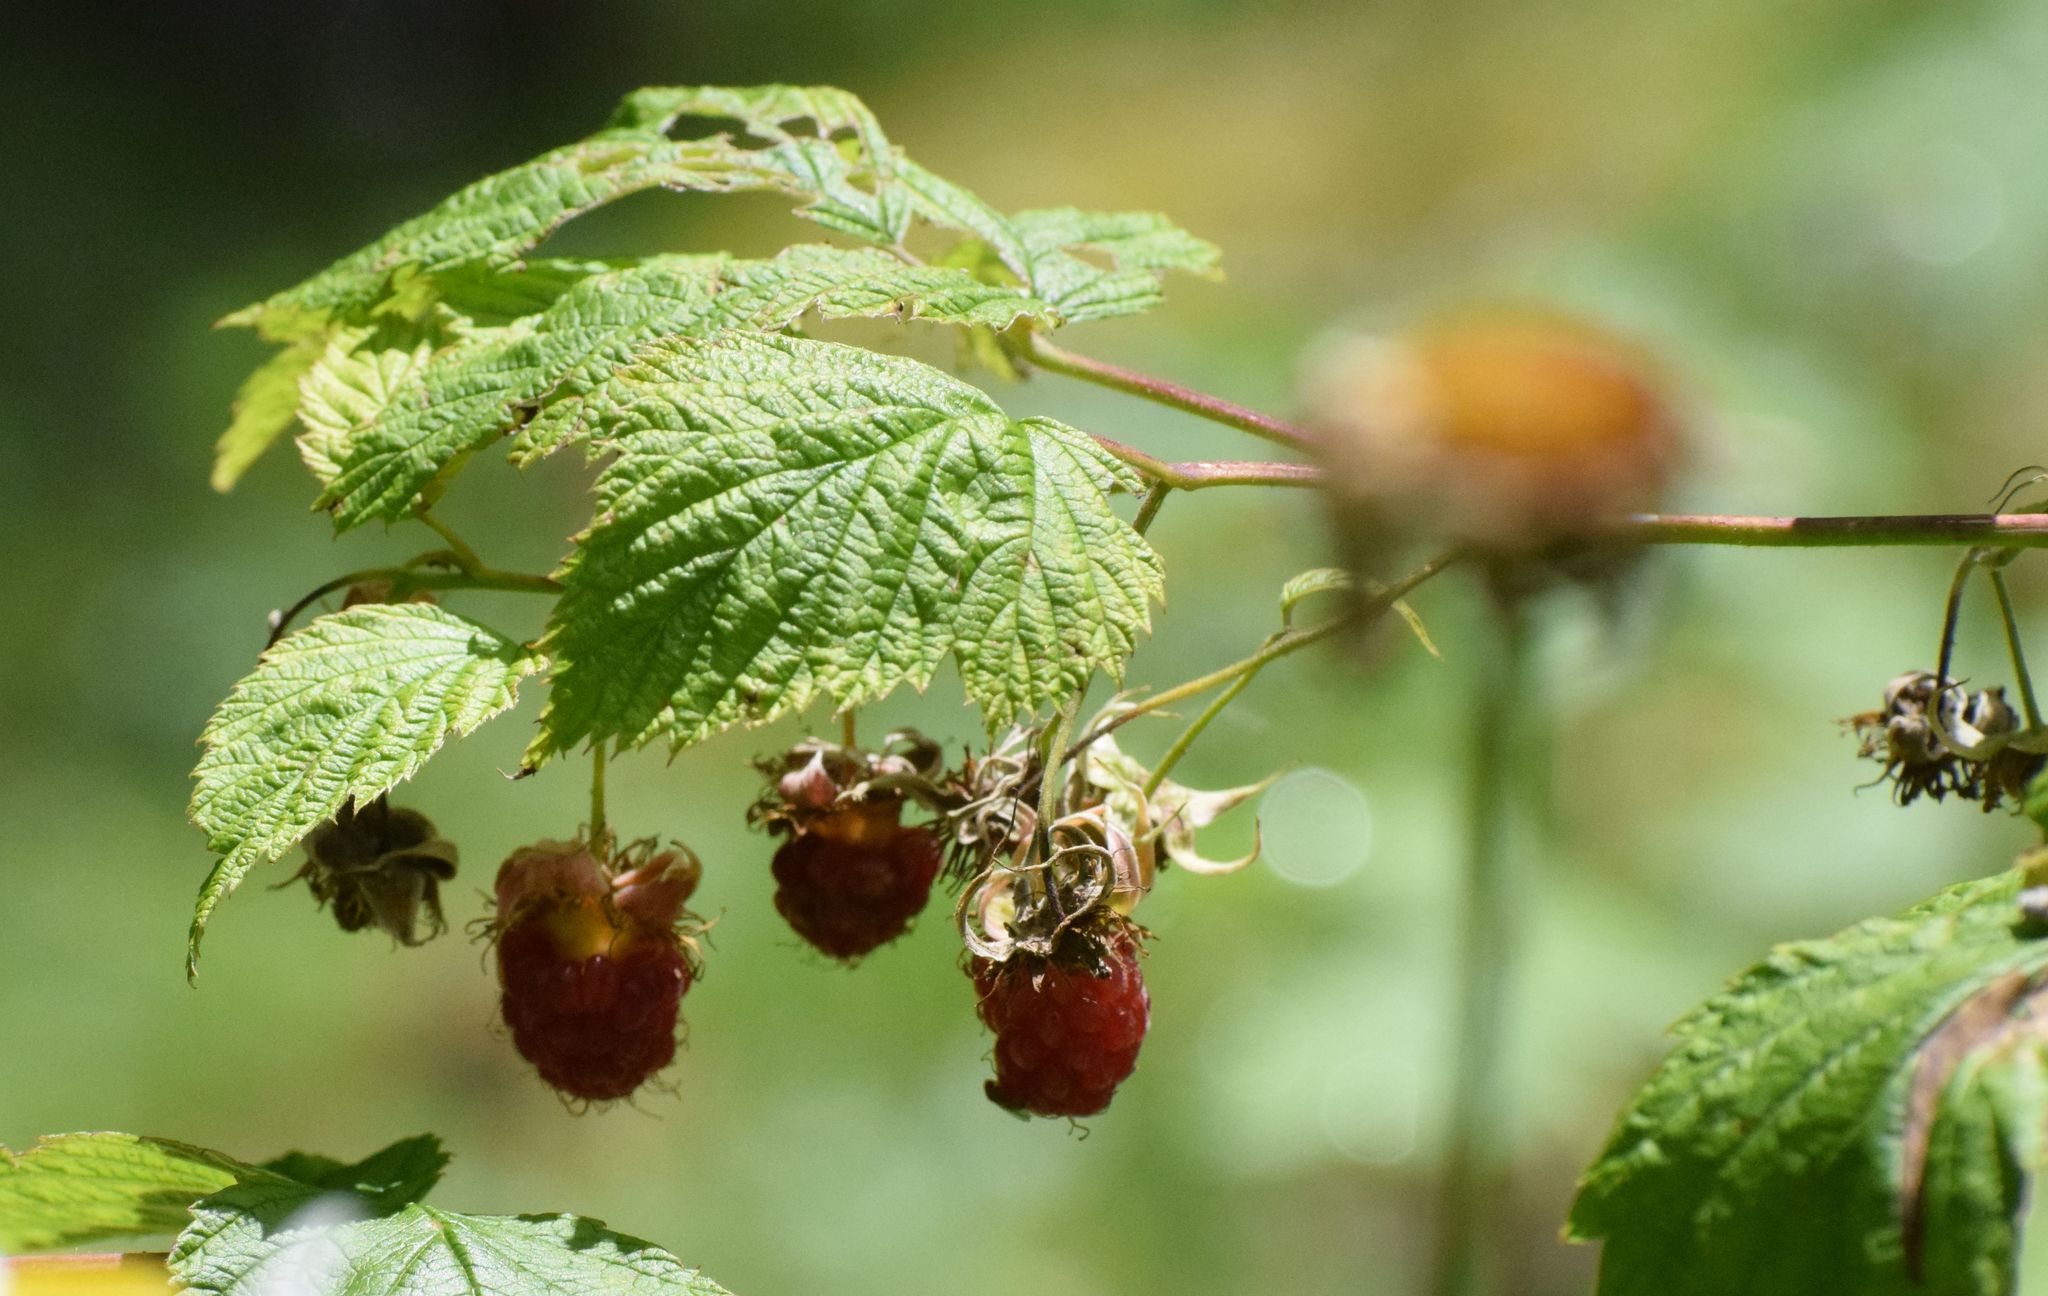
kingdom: Plantae
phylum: Tracheophyta
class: Magnoliopsida
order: Rosales
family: Rosaceae
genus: Rubus
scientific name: Rubus idaeus
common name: Raspberry
